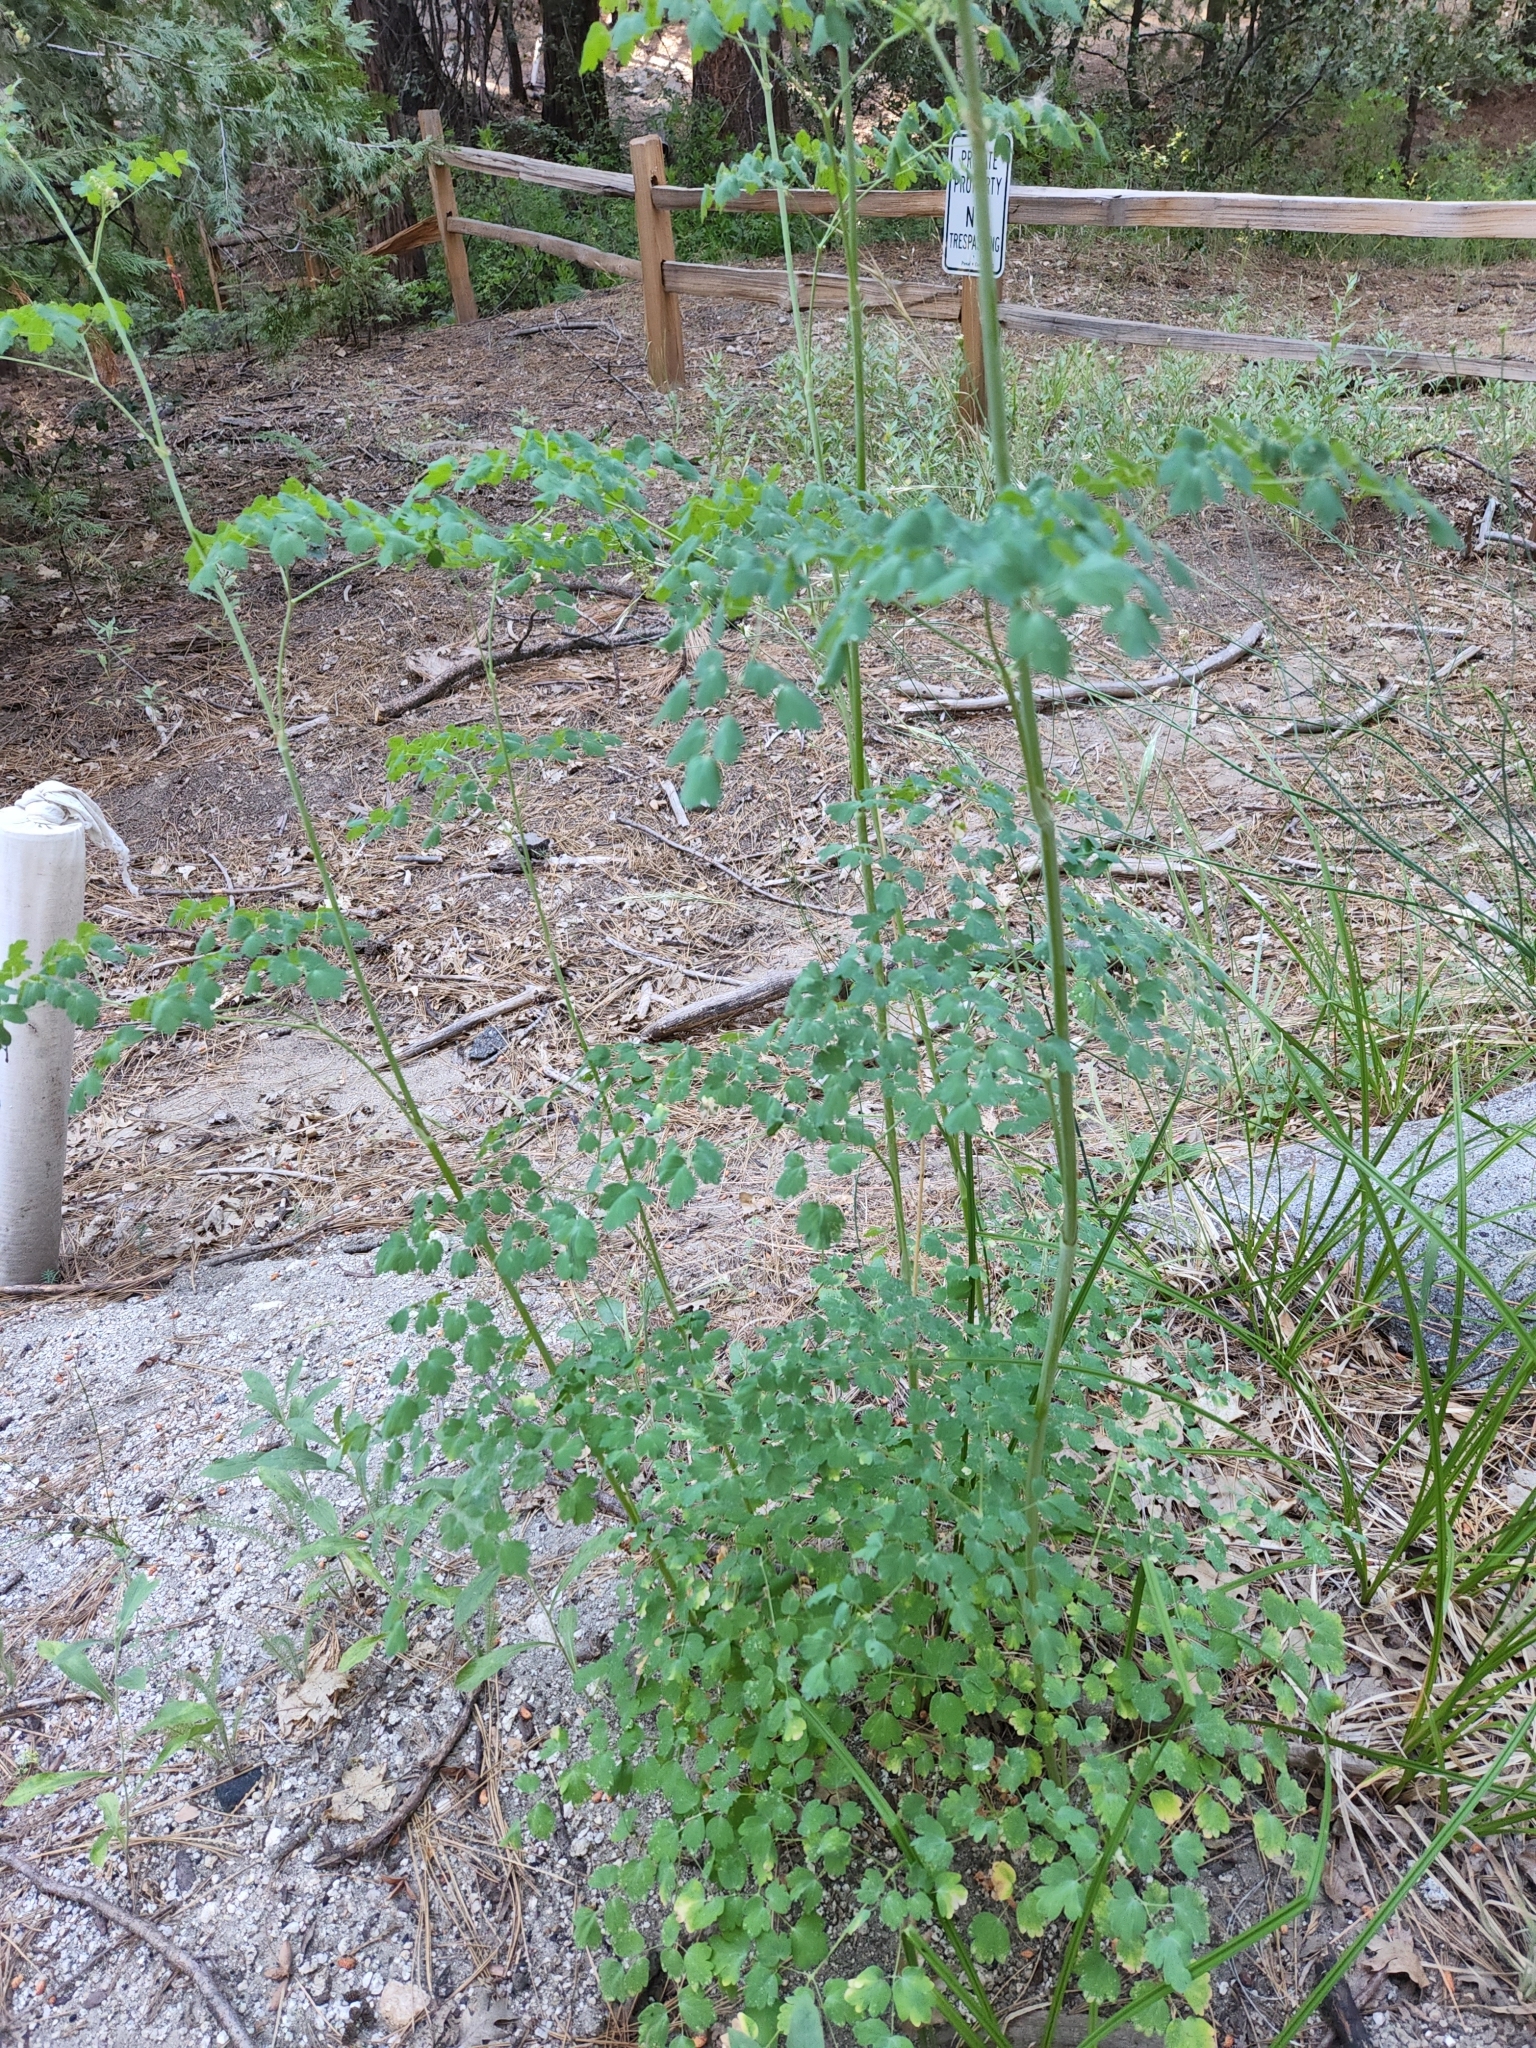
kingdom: Plantae
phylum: Tracheophyta
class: Magnoliopsida
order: Ranunculales
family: Ranunculaceae
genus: Thalictrum
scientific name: Thalictrum fendleri
